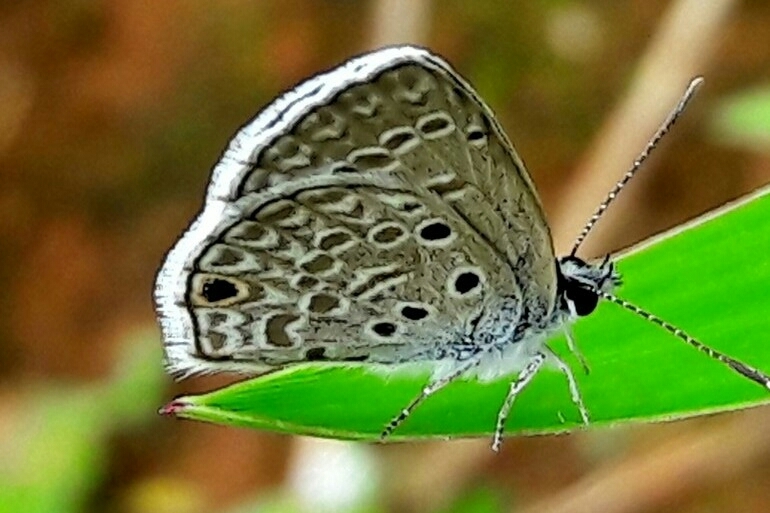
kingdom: Animalia
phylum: Arthropoda
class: Insecta
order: Lepidoptera
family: Lycaenidae
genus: Hemiargus
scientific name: Hemiargus hanno
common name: Common blue
